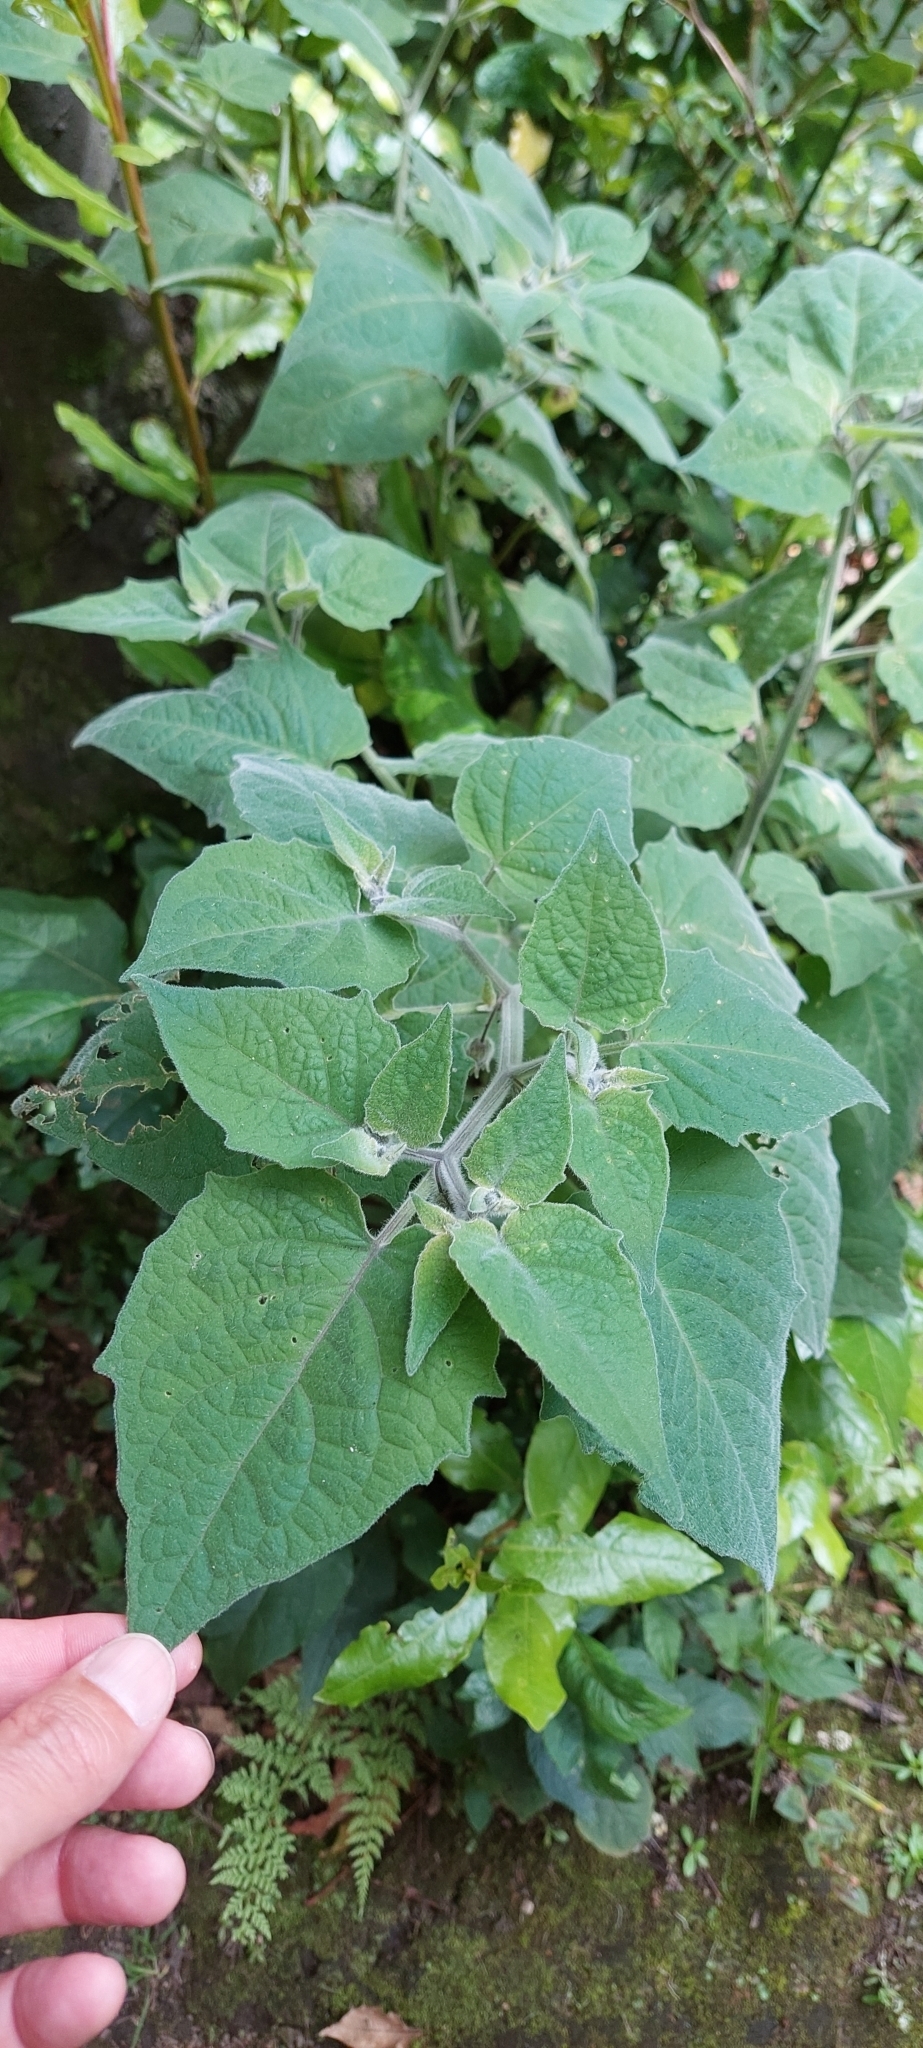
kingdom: Plantae
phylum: Tracheophyta
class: Magnoliopsida
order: Solanales
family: Solanaceae
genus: Physalis
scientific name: Physalis peruviana
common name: Cape-gooseberry
